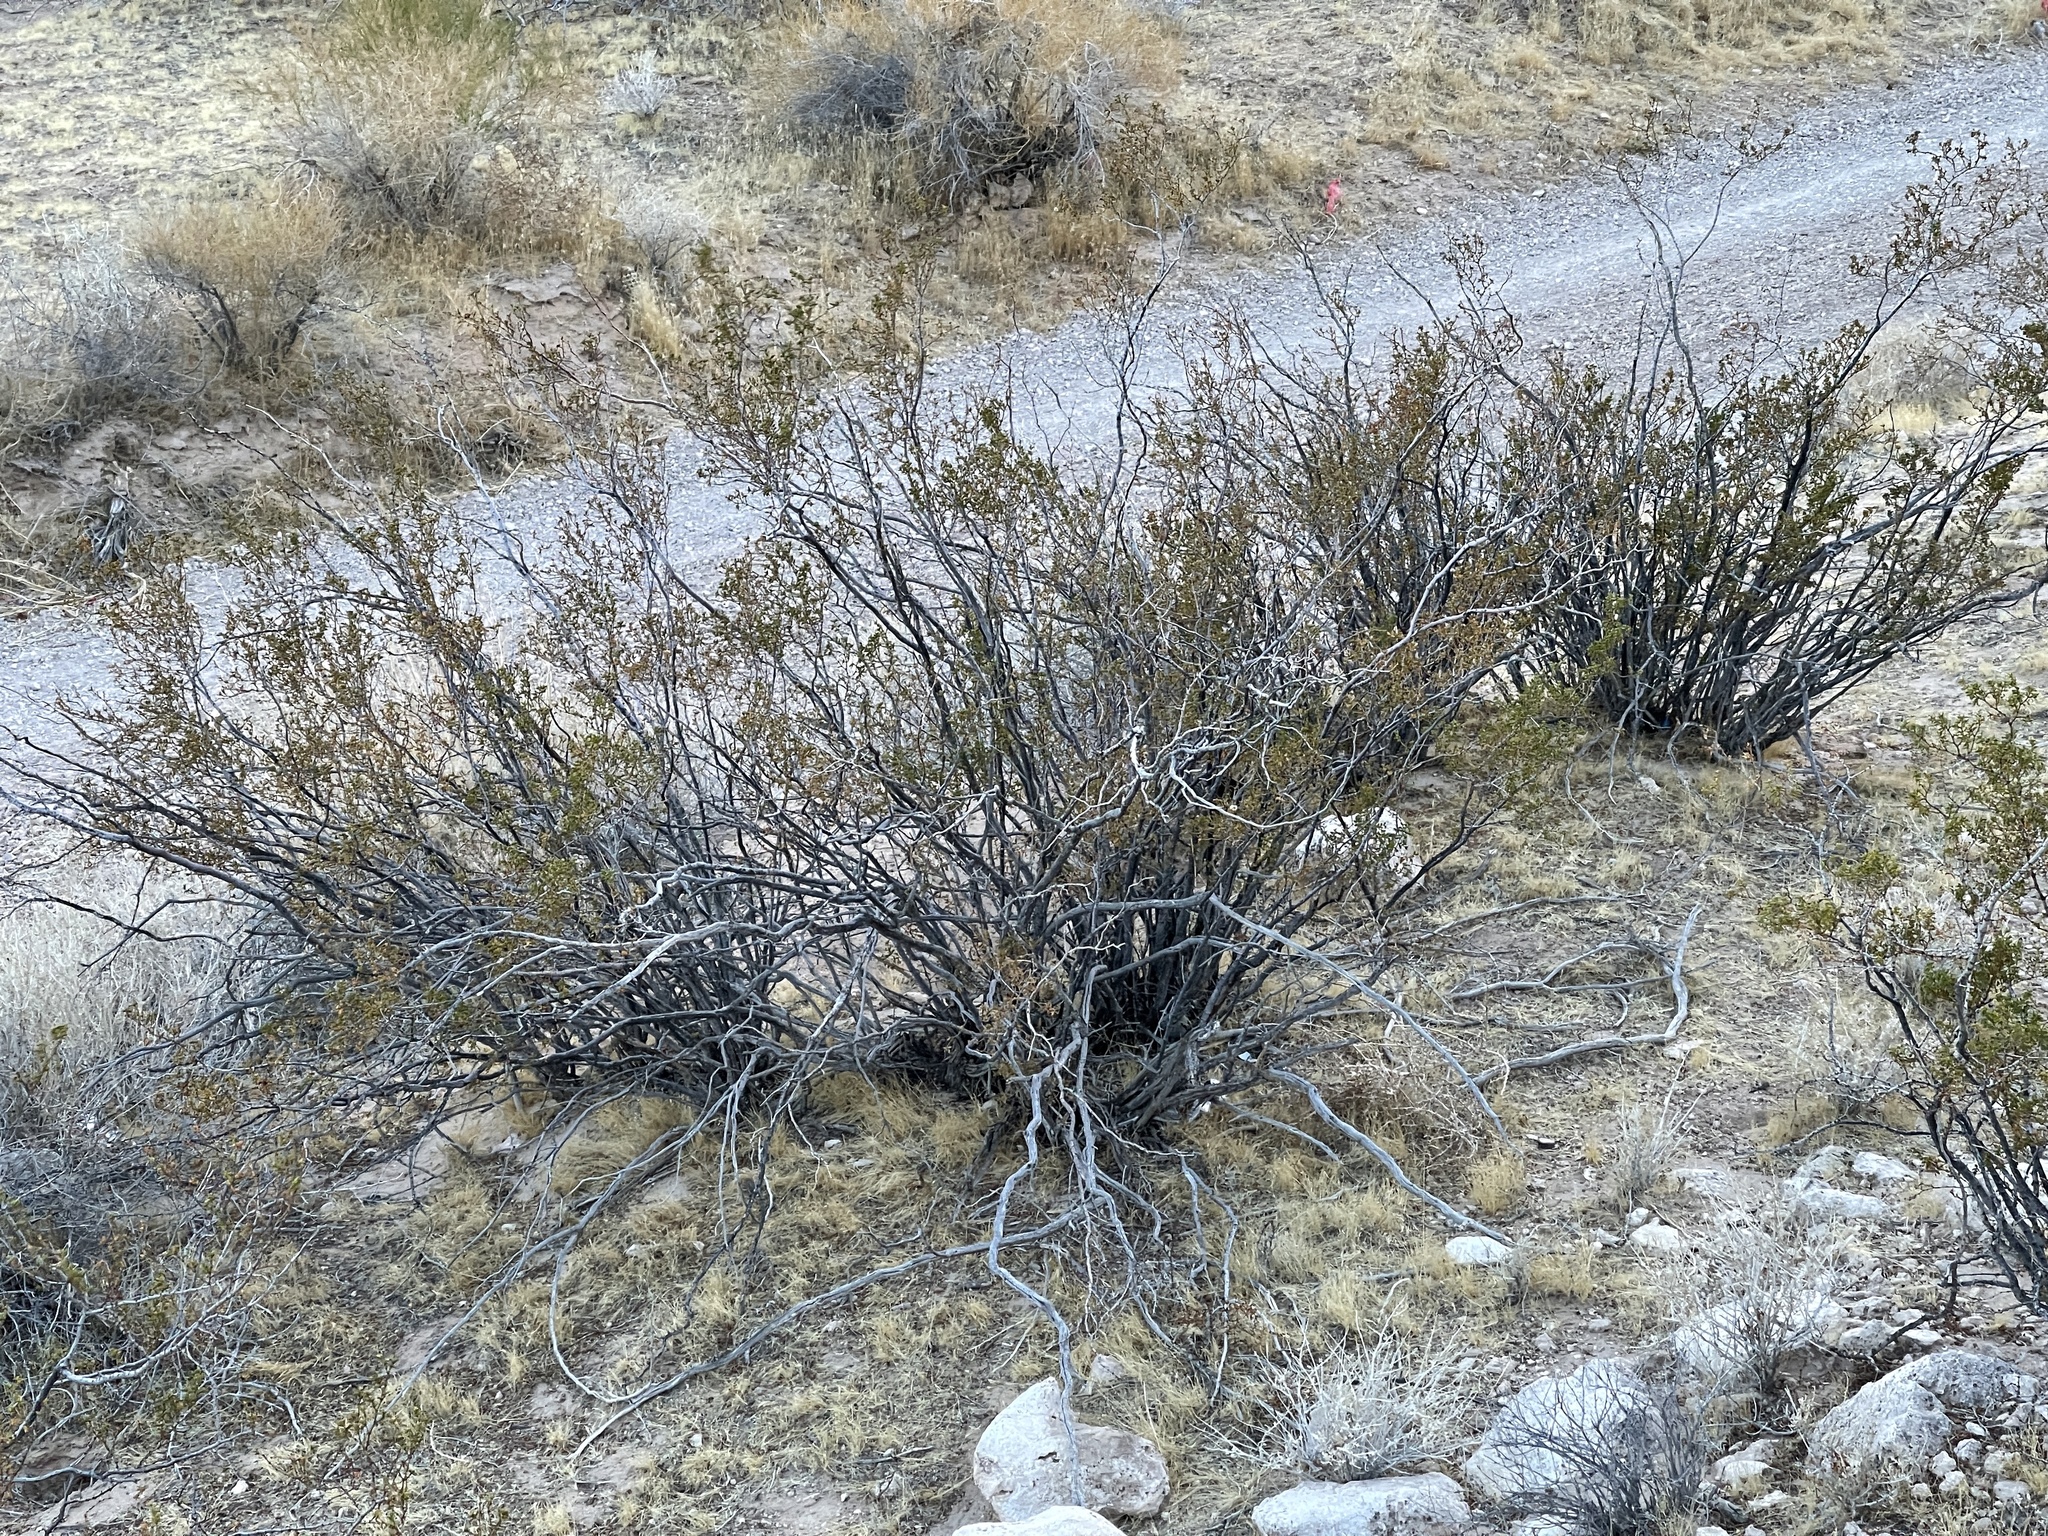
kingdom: Plantae
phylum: Tracheophyta
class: Magnoliopsida
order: Zygophyllales
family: Zygophyllaceae
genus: Larrea
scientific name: Larrea tridentata
